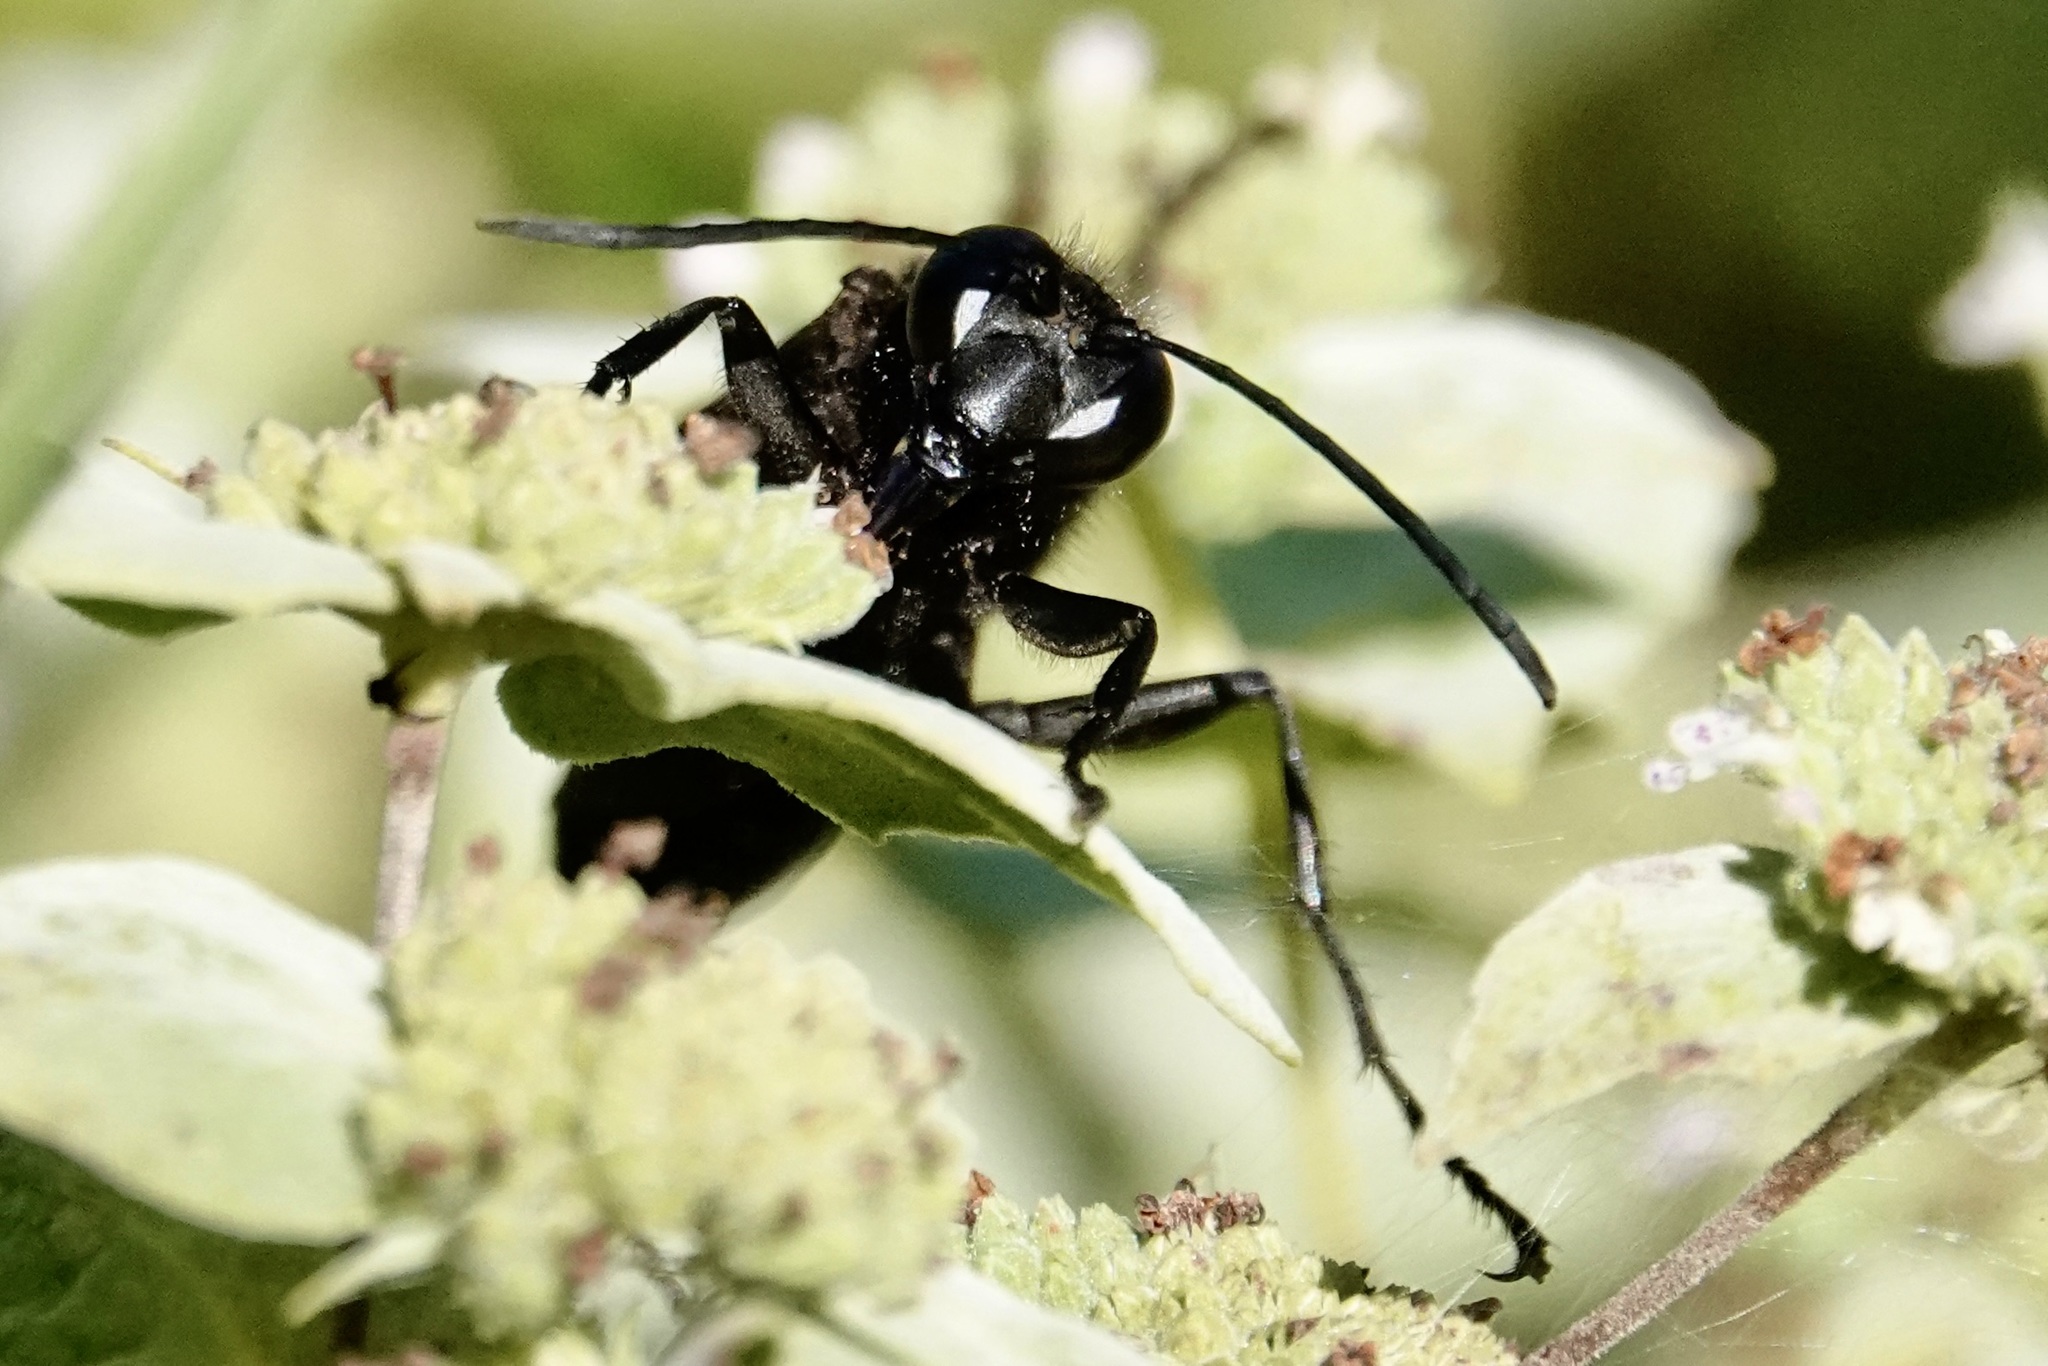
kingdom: Animalia
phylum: Arthropoda
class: Insecta
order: Hymenoptera
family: Sphecidae
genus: Sphex
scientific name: Sphex pensylvanicus
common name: Great black digger wasp
